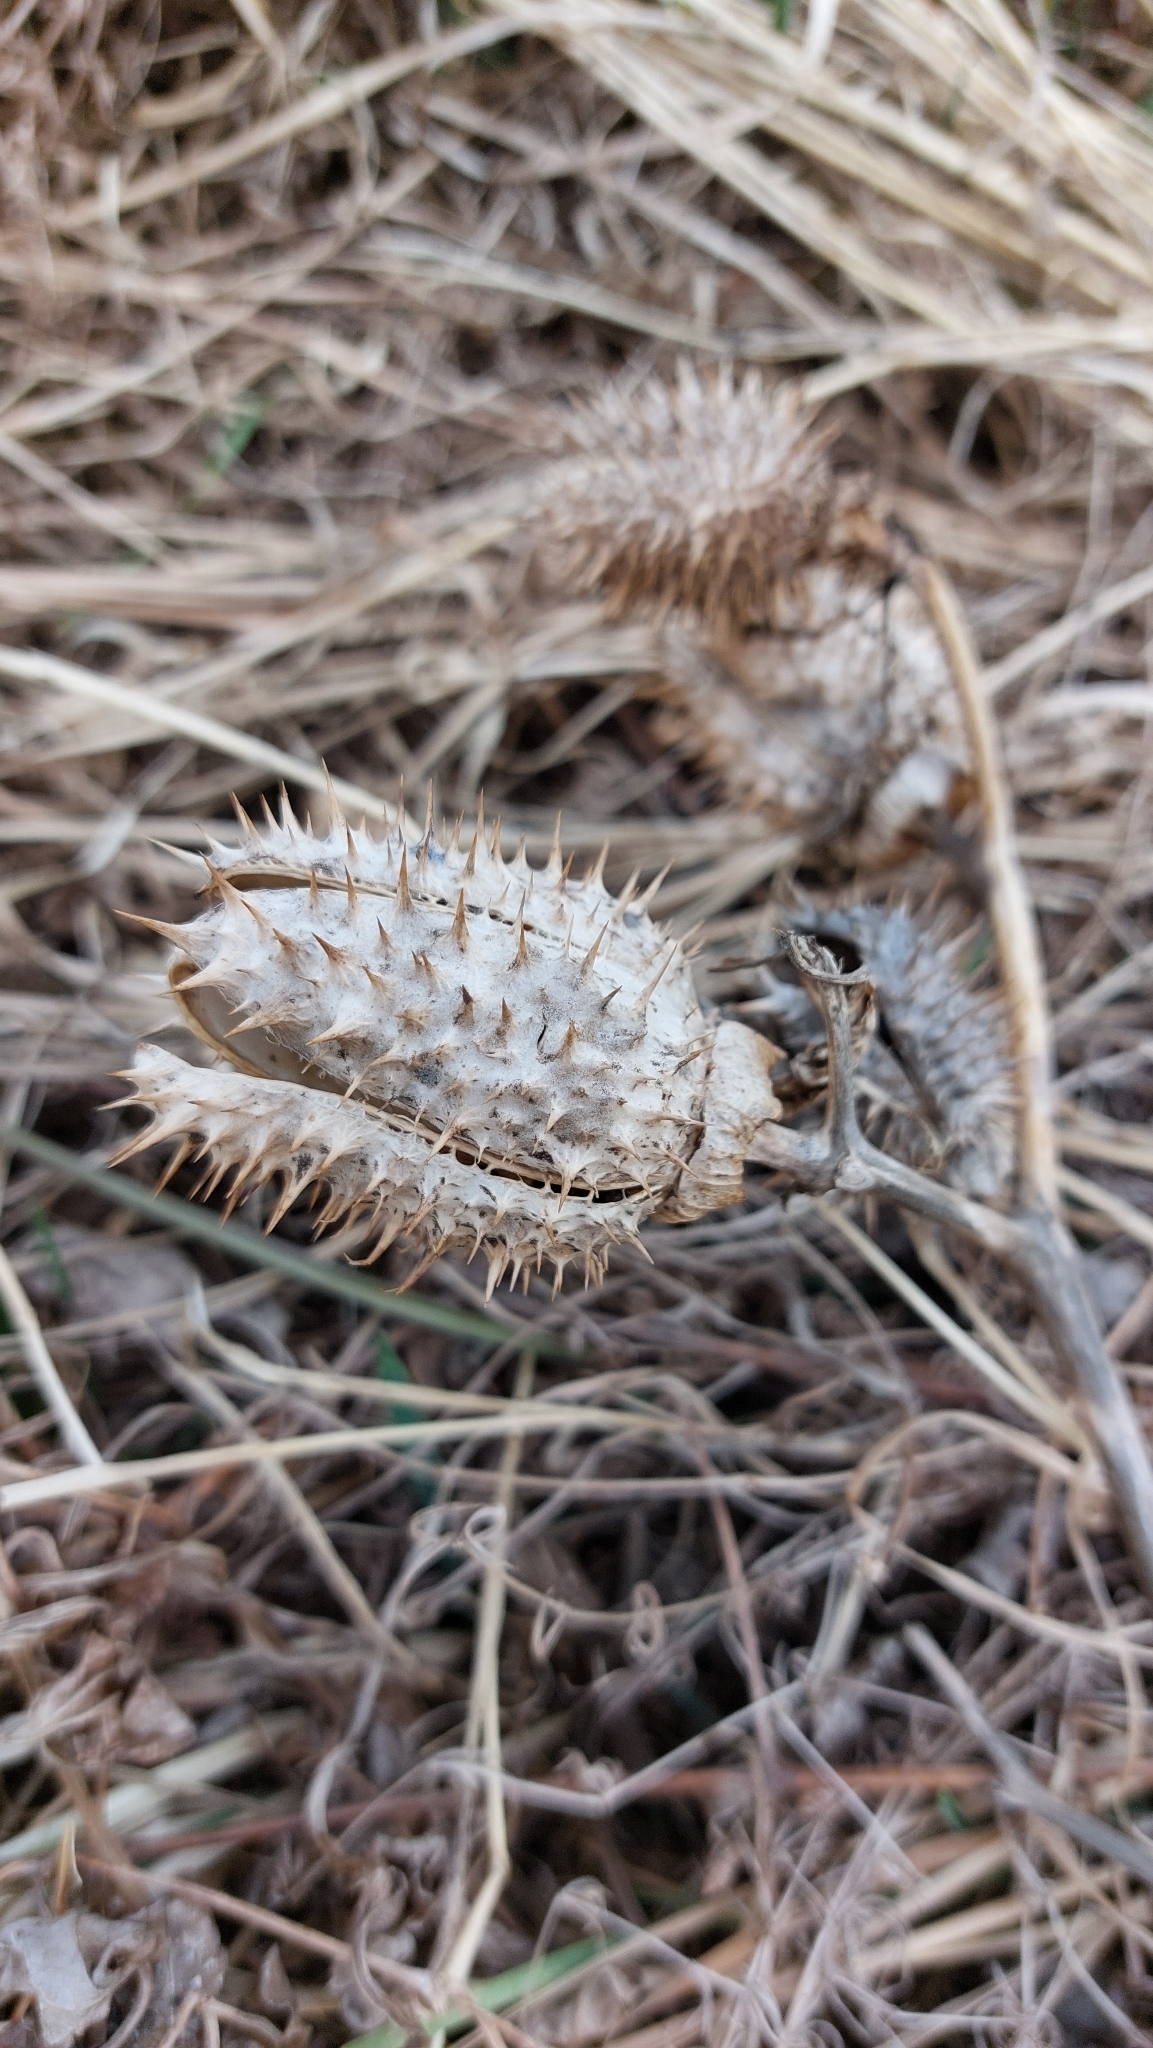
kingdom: Plantae
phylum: Tracheophyta
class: Magnoliopsida
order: Solanales
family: Solanaceae
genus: Datura
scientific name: Datura stramonium
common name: Thorn-apple
